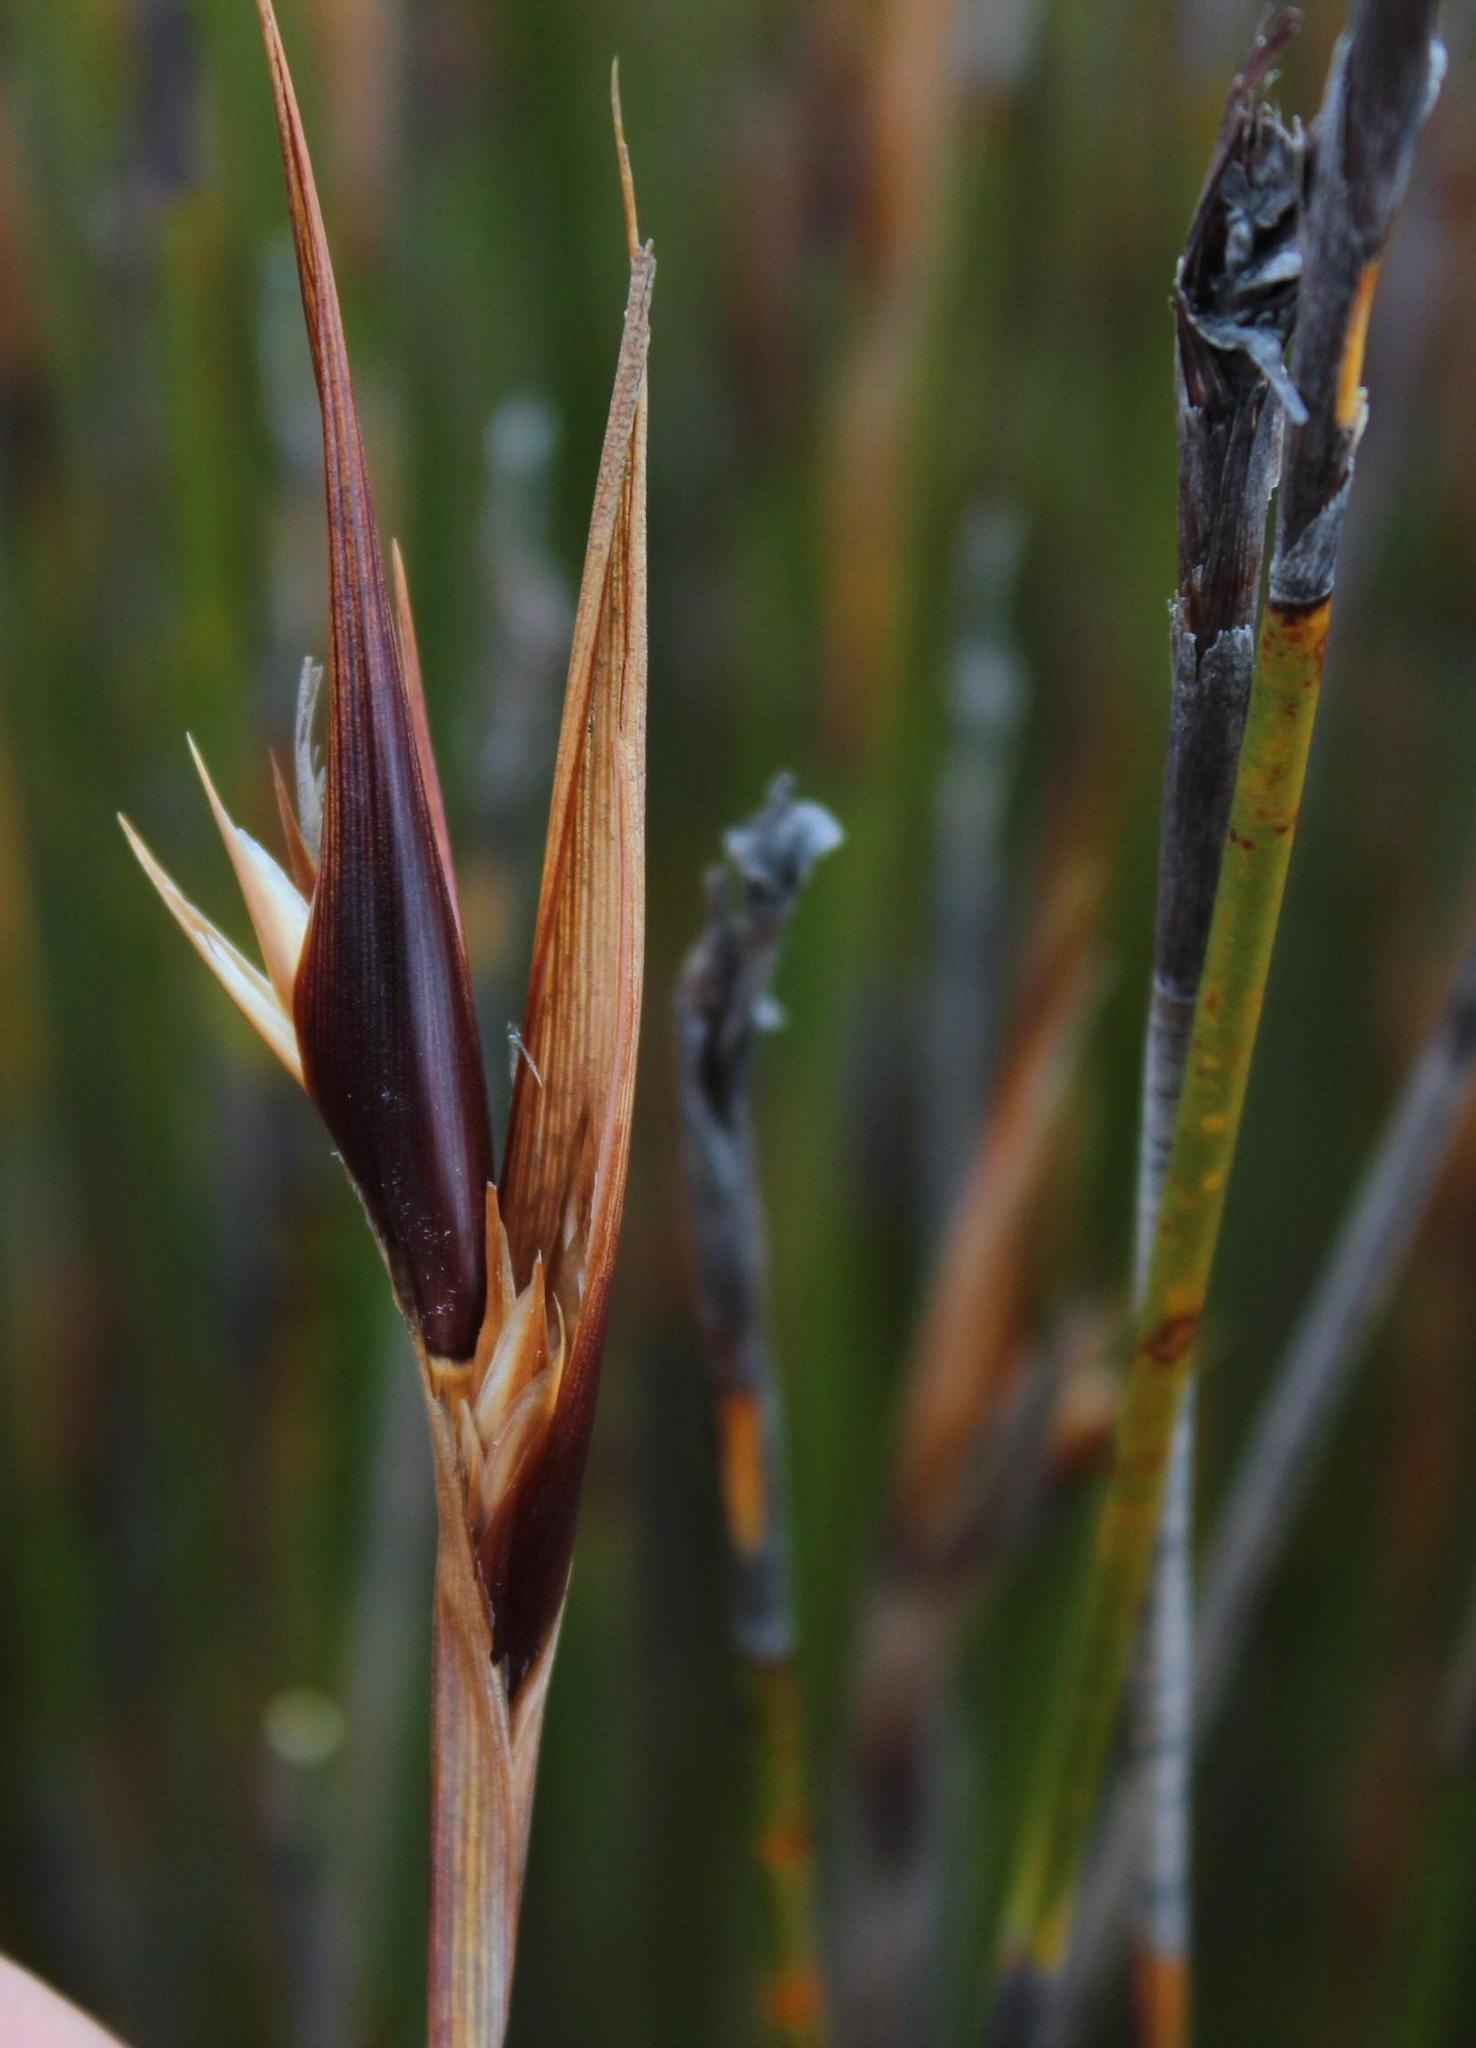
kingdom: Plantae
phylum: Tracheophyta
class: Liliopsida
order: Poales
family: Restionaceae
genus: Ceratocaryum
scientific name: Ceratocaryum decipiens
